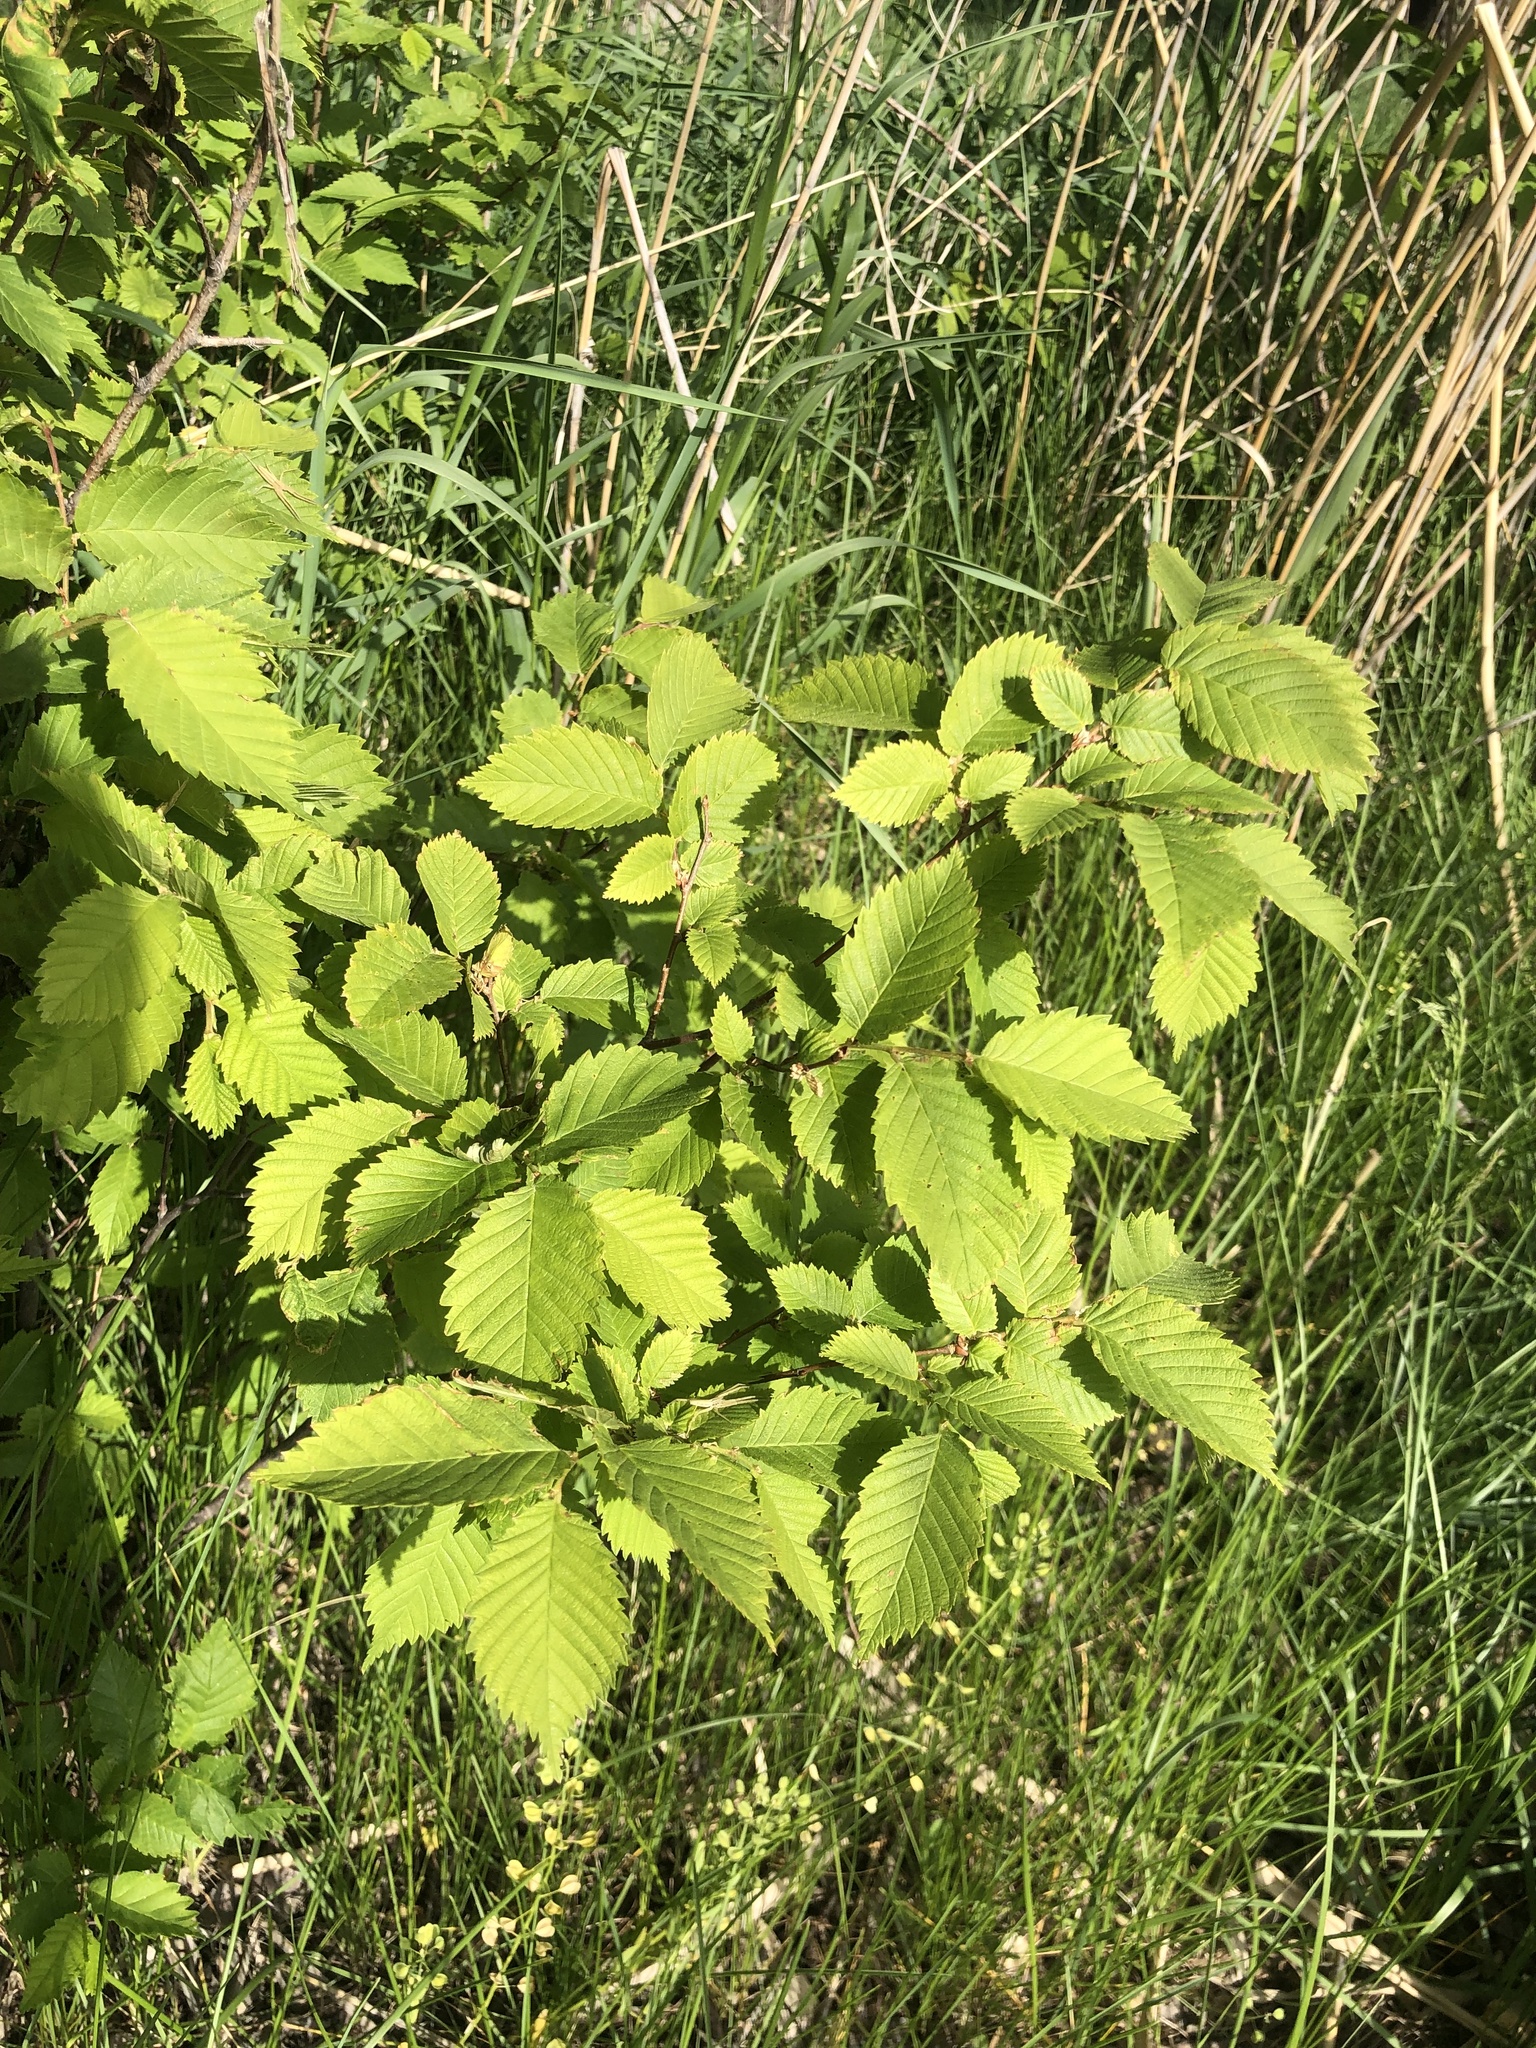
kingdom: Plantae
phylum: Tracheophyta
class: Magnoliopsida
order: Rosales
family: Ulmaceae
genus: Ulmus
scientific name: Ulmus pumila
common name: Siberian elm
